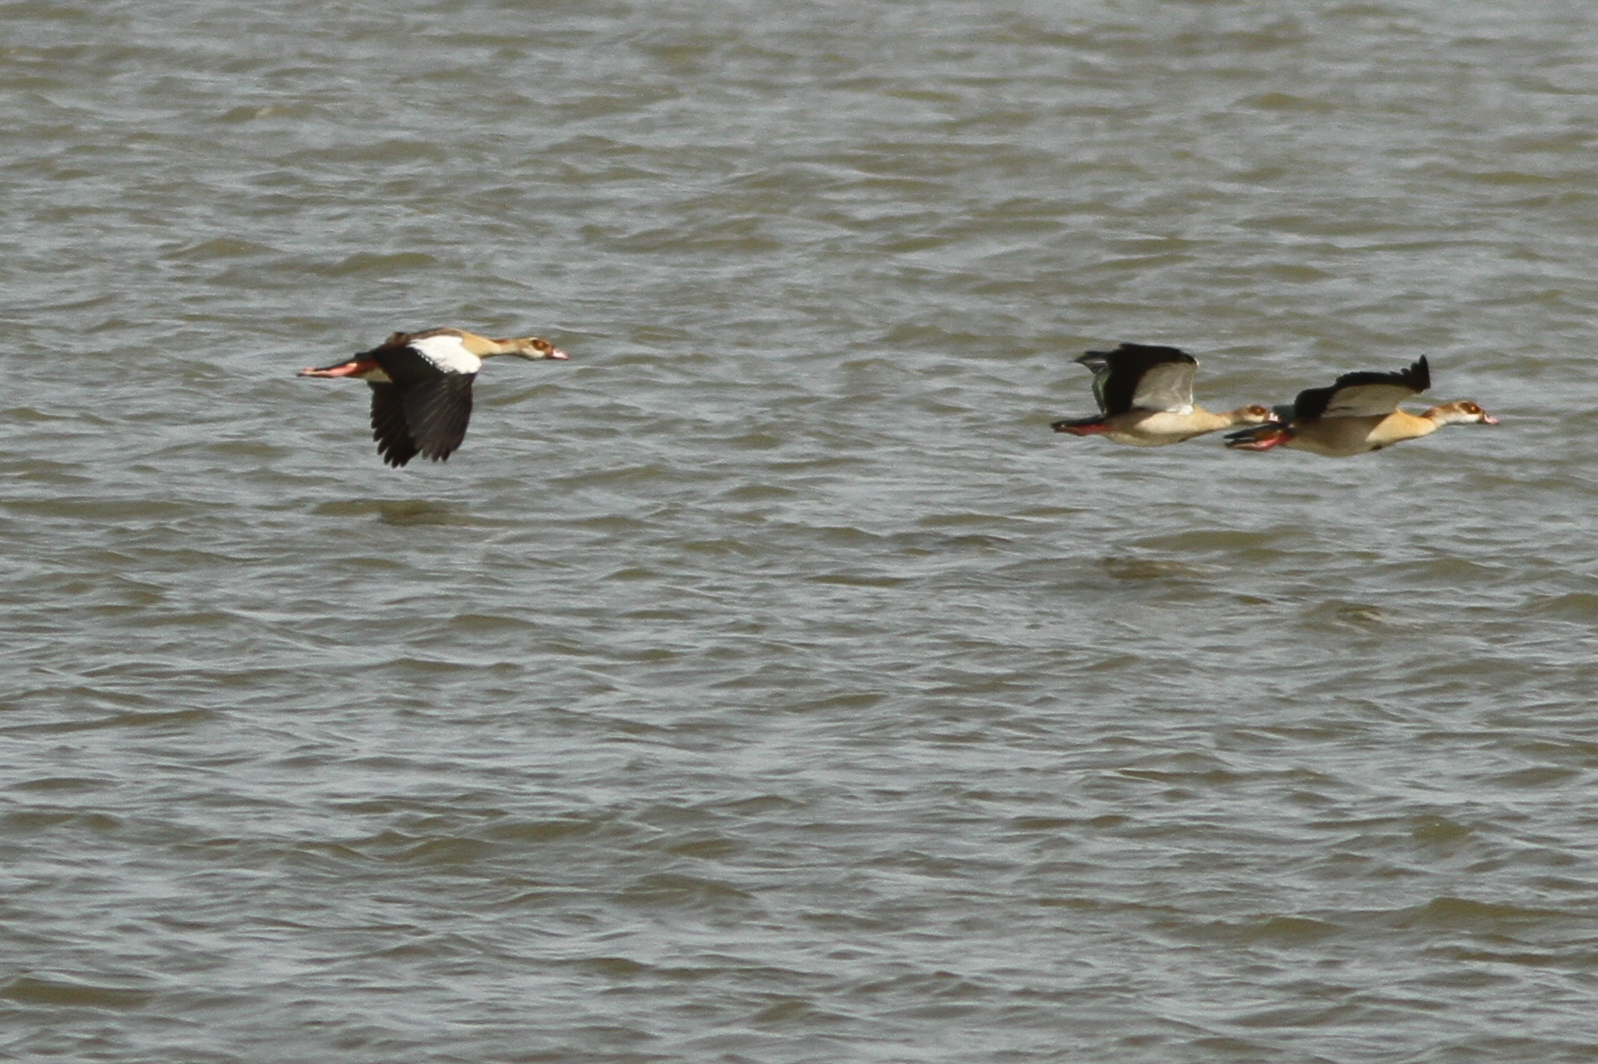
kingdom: Animalia
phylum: Chordata
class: Aves
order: Anseriformes
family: Anatidae
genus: Alopochen
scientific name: Alopochen aegyptiaca
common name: Egyptian goose
